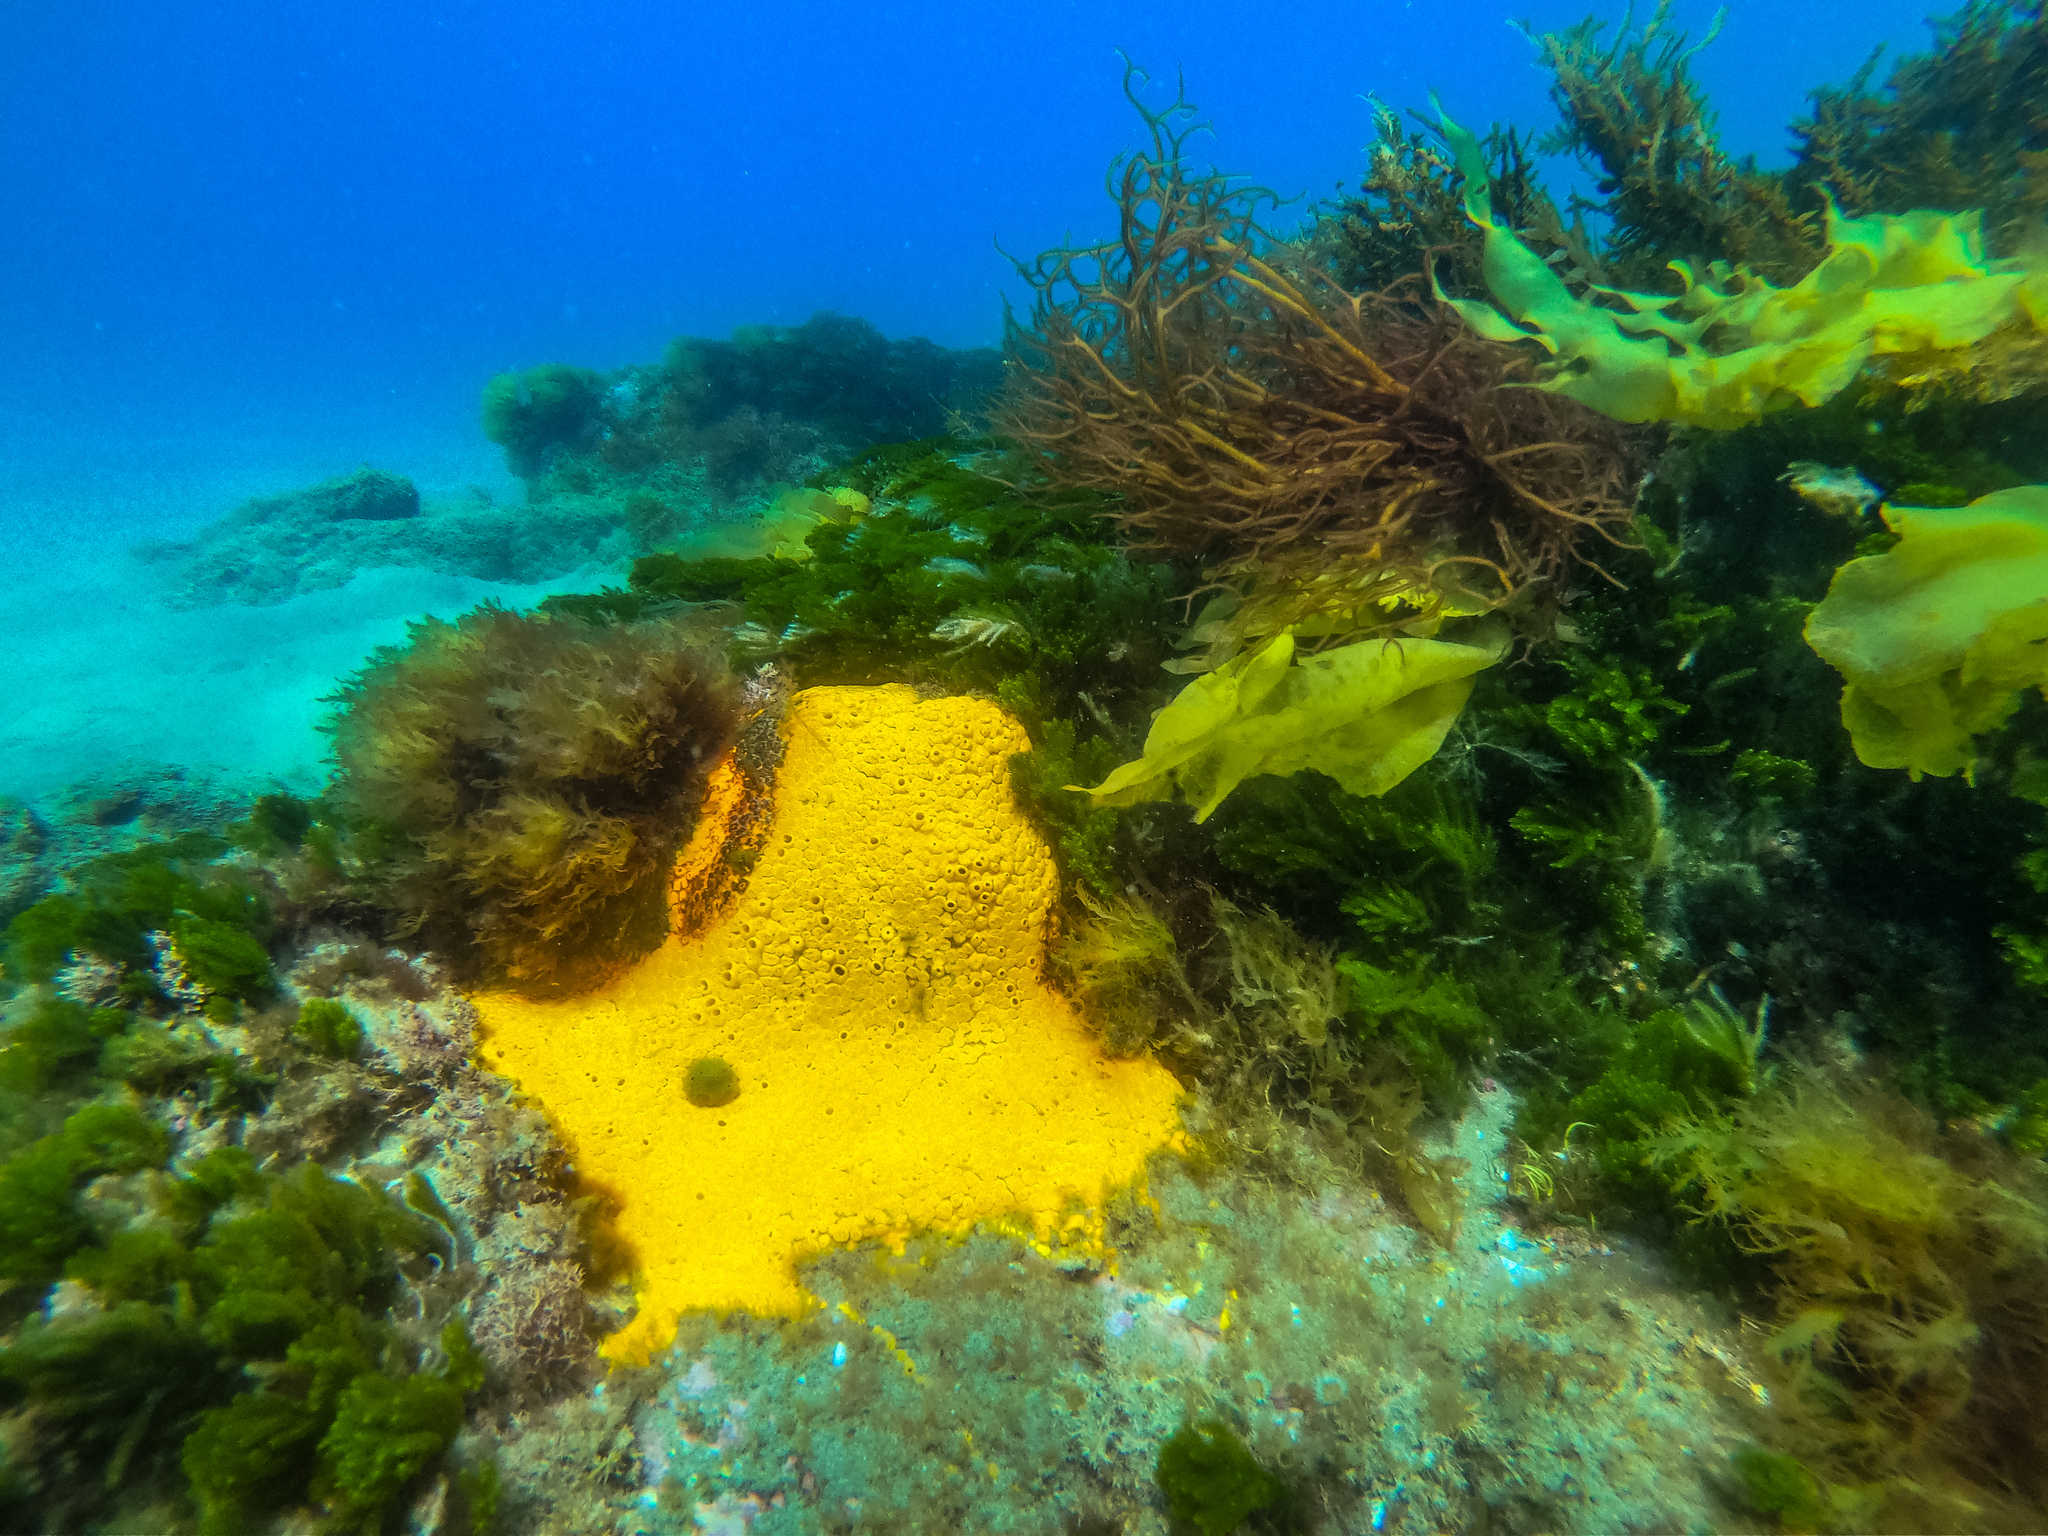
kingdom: Animalia
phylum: Porifera
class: Demospongiae
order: Clionaida
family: Clionaidae
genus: Cliona
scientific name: Cliona celata
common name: Boring sponge
